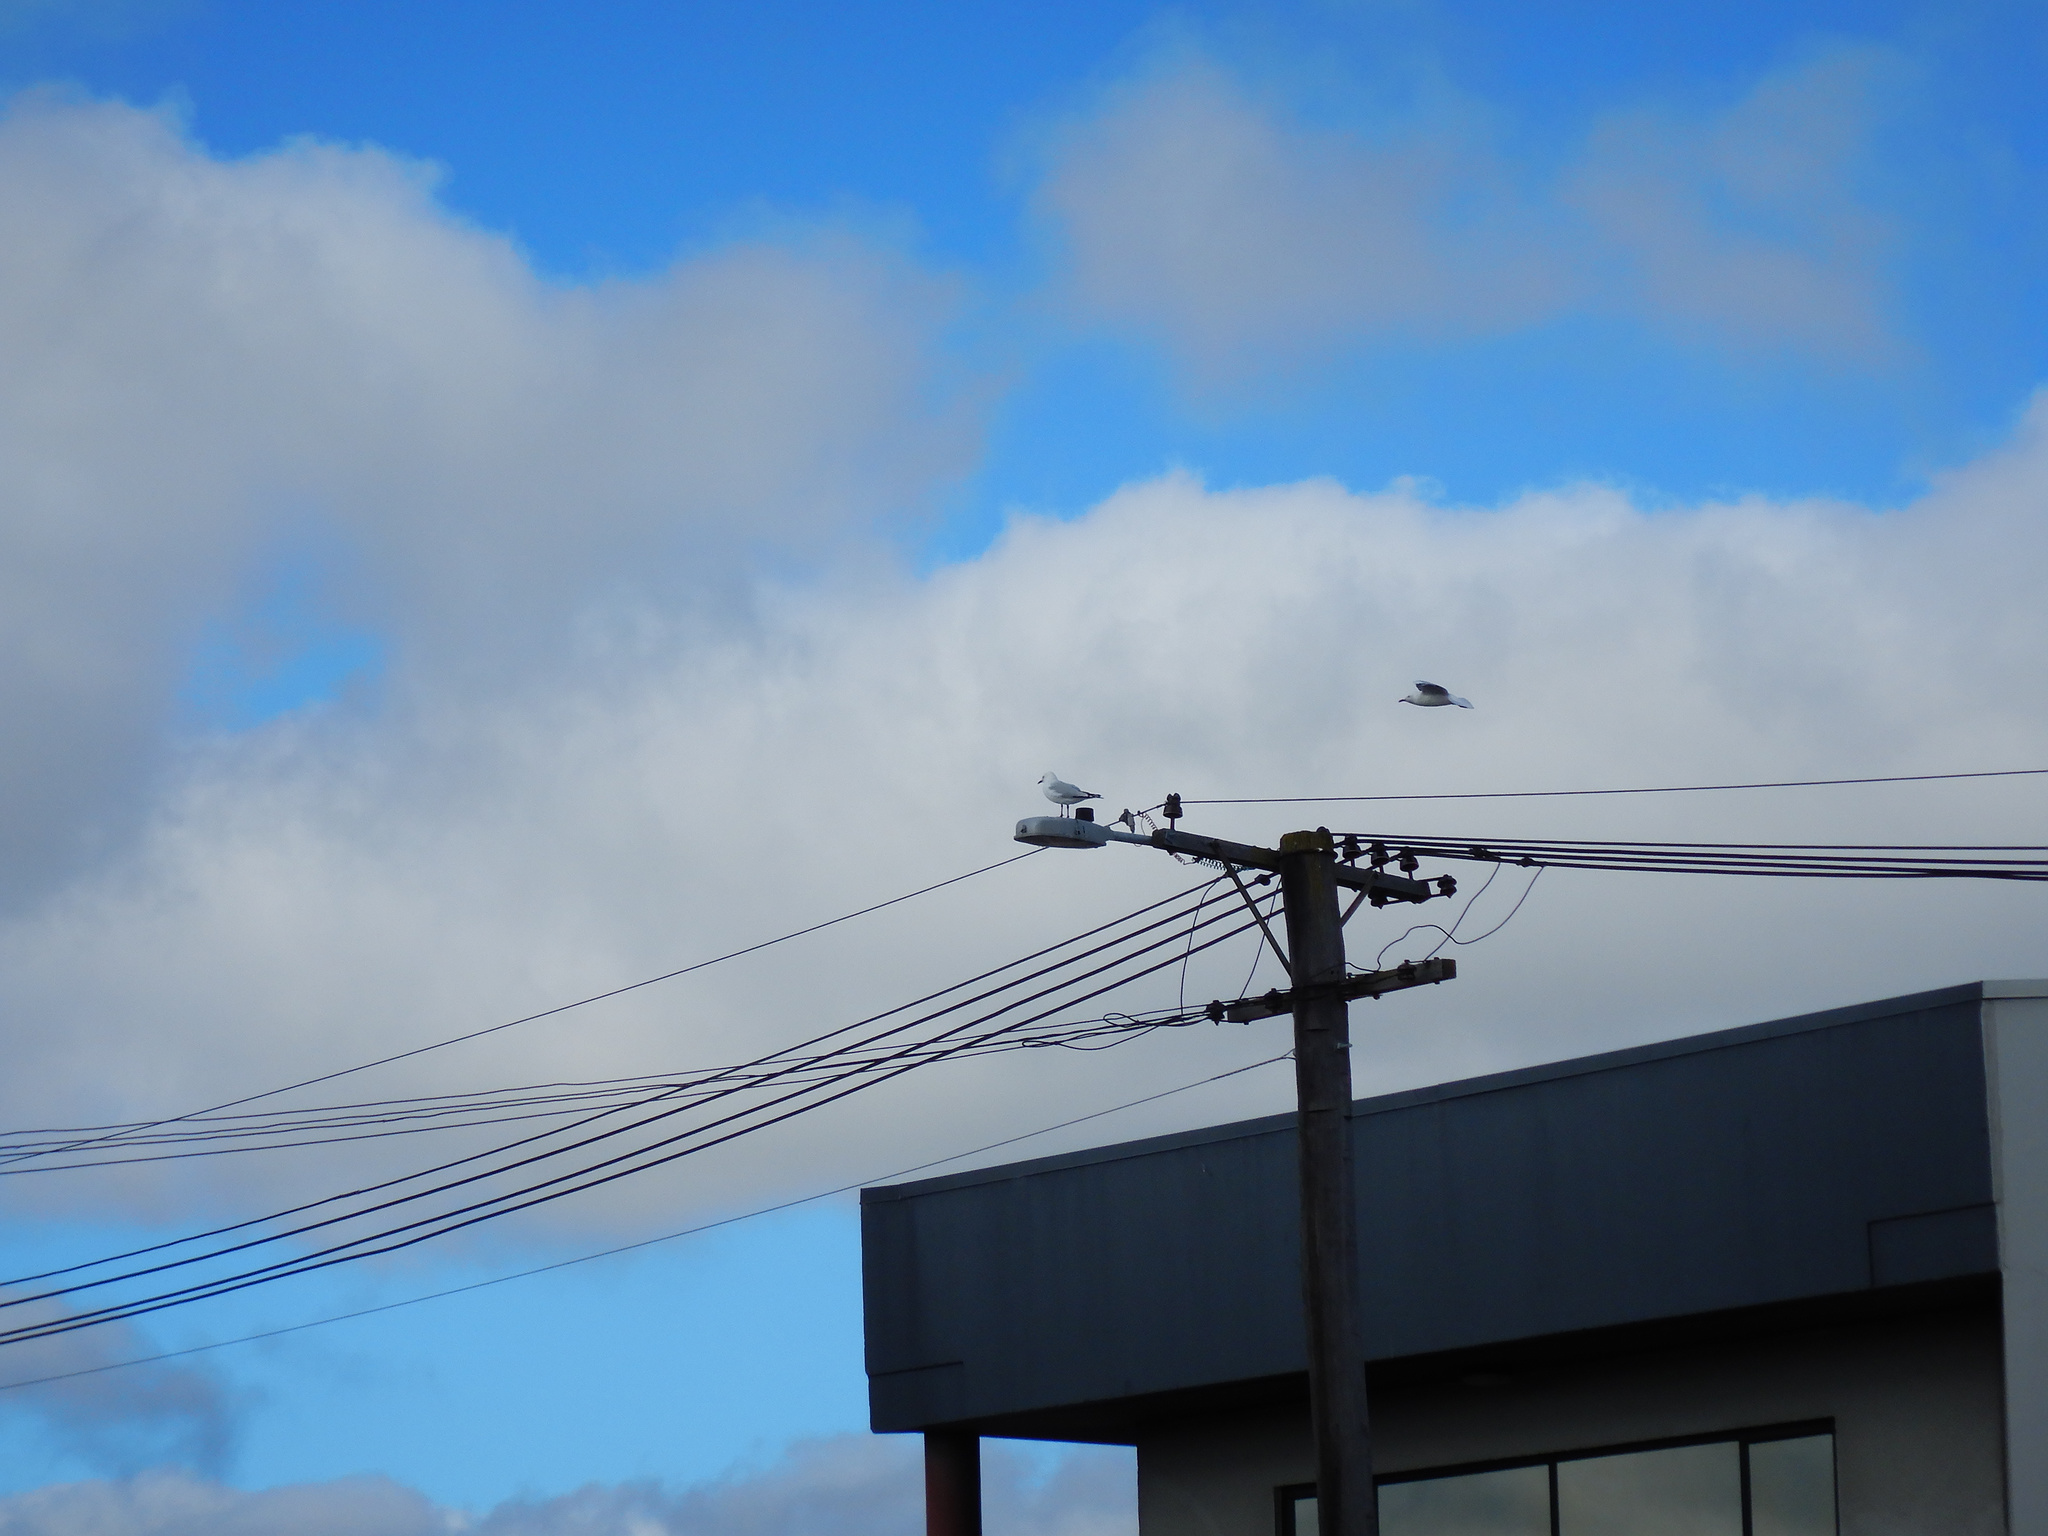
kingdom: Animalia
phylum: Chordata
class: Aves
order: Charadriiformes
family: Laridae
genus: Chroicocephalus
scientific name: Chroicocephalus novaehollandiae
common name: Silver gull
